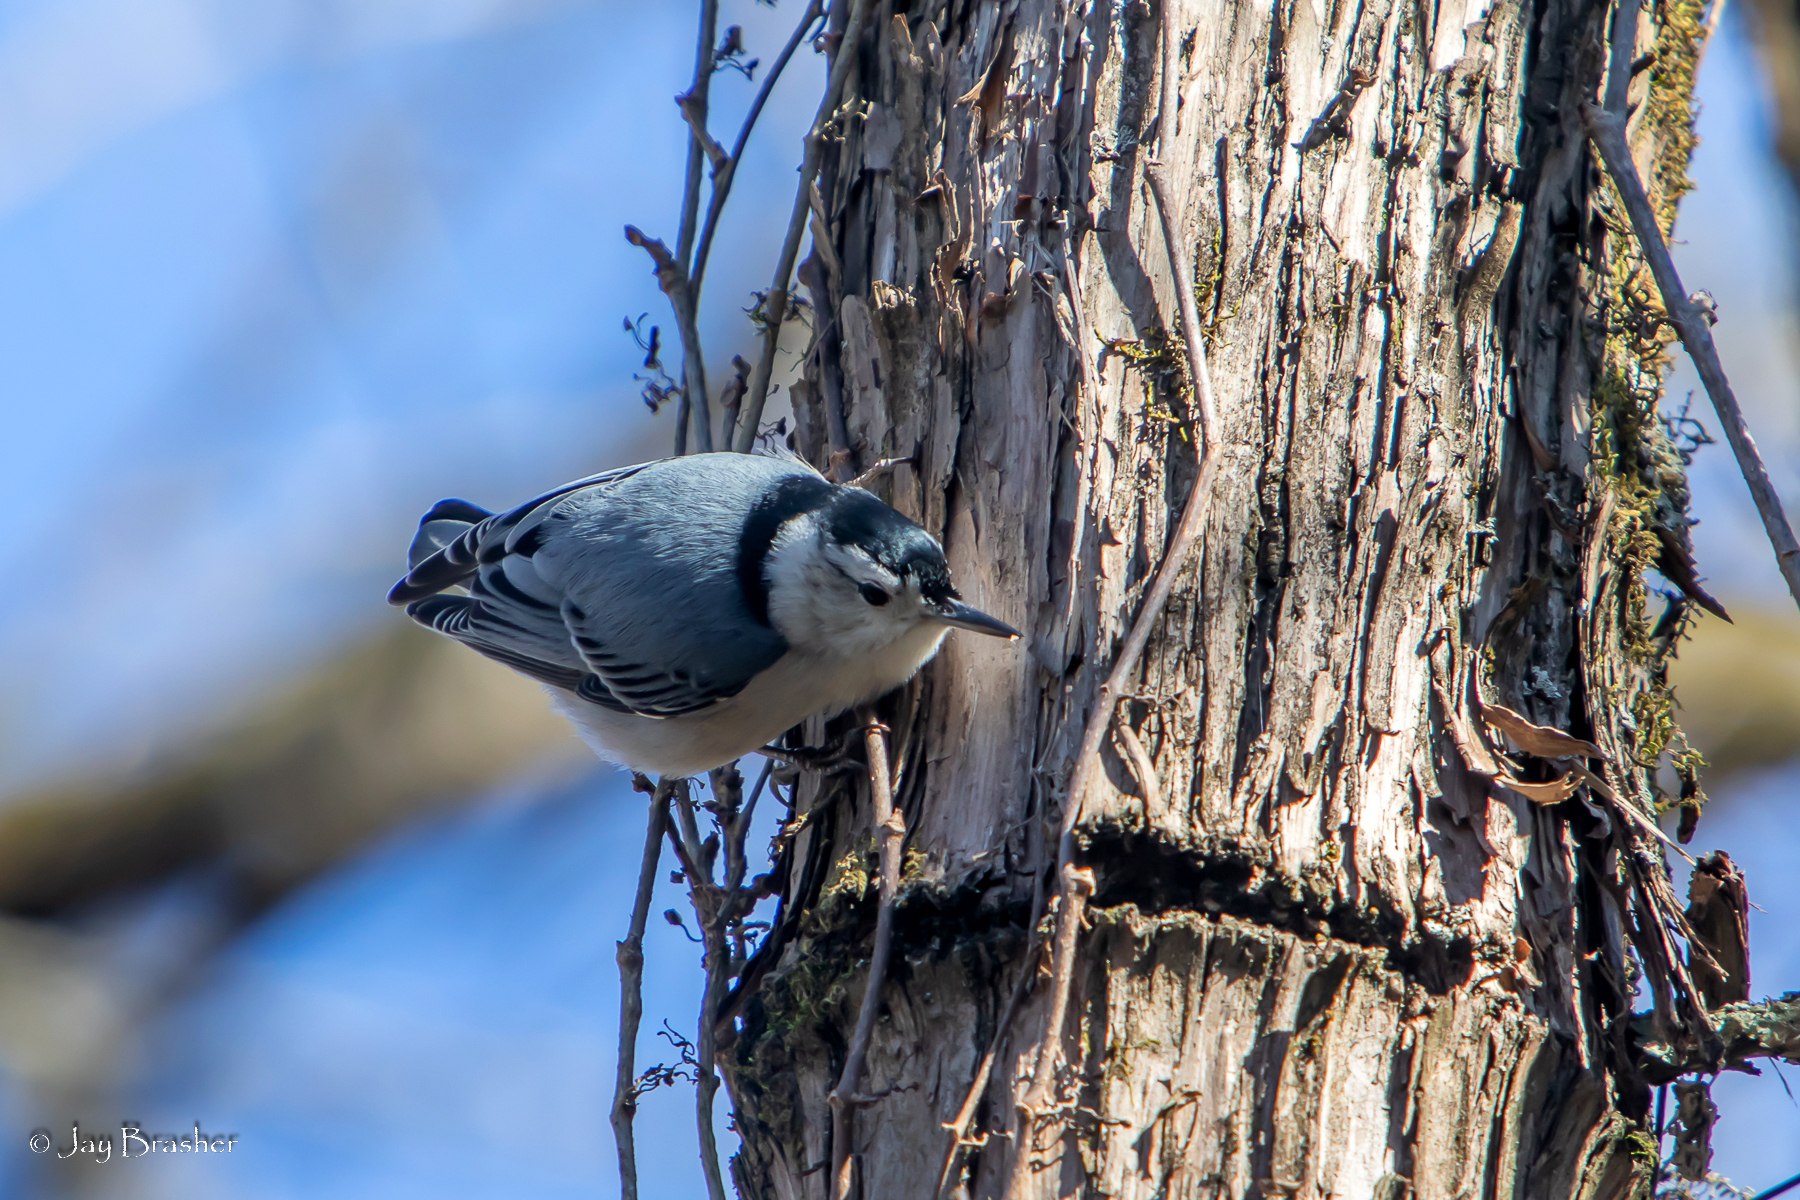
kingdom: Animalia
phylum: Chordata
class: Aves
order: Passeriformes
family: Sittidae
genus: Sitta
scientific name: Sitta carolinensis
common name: White-breasted nuthatch
